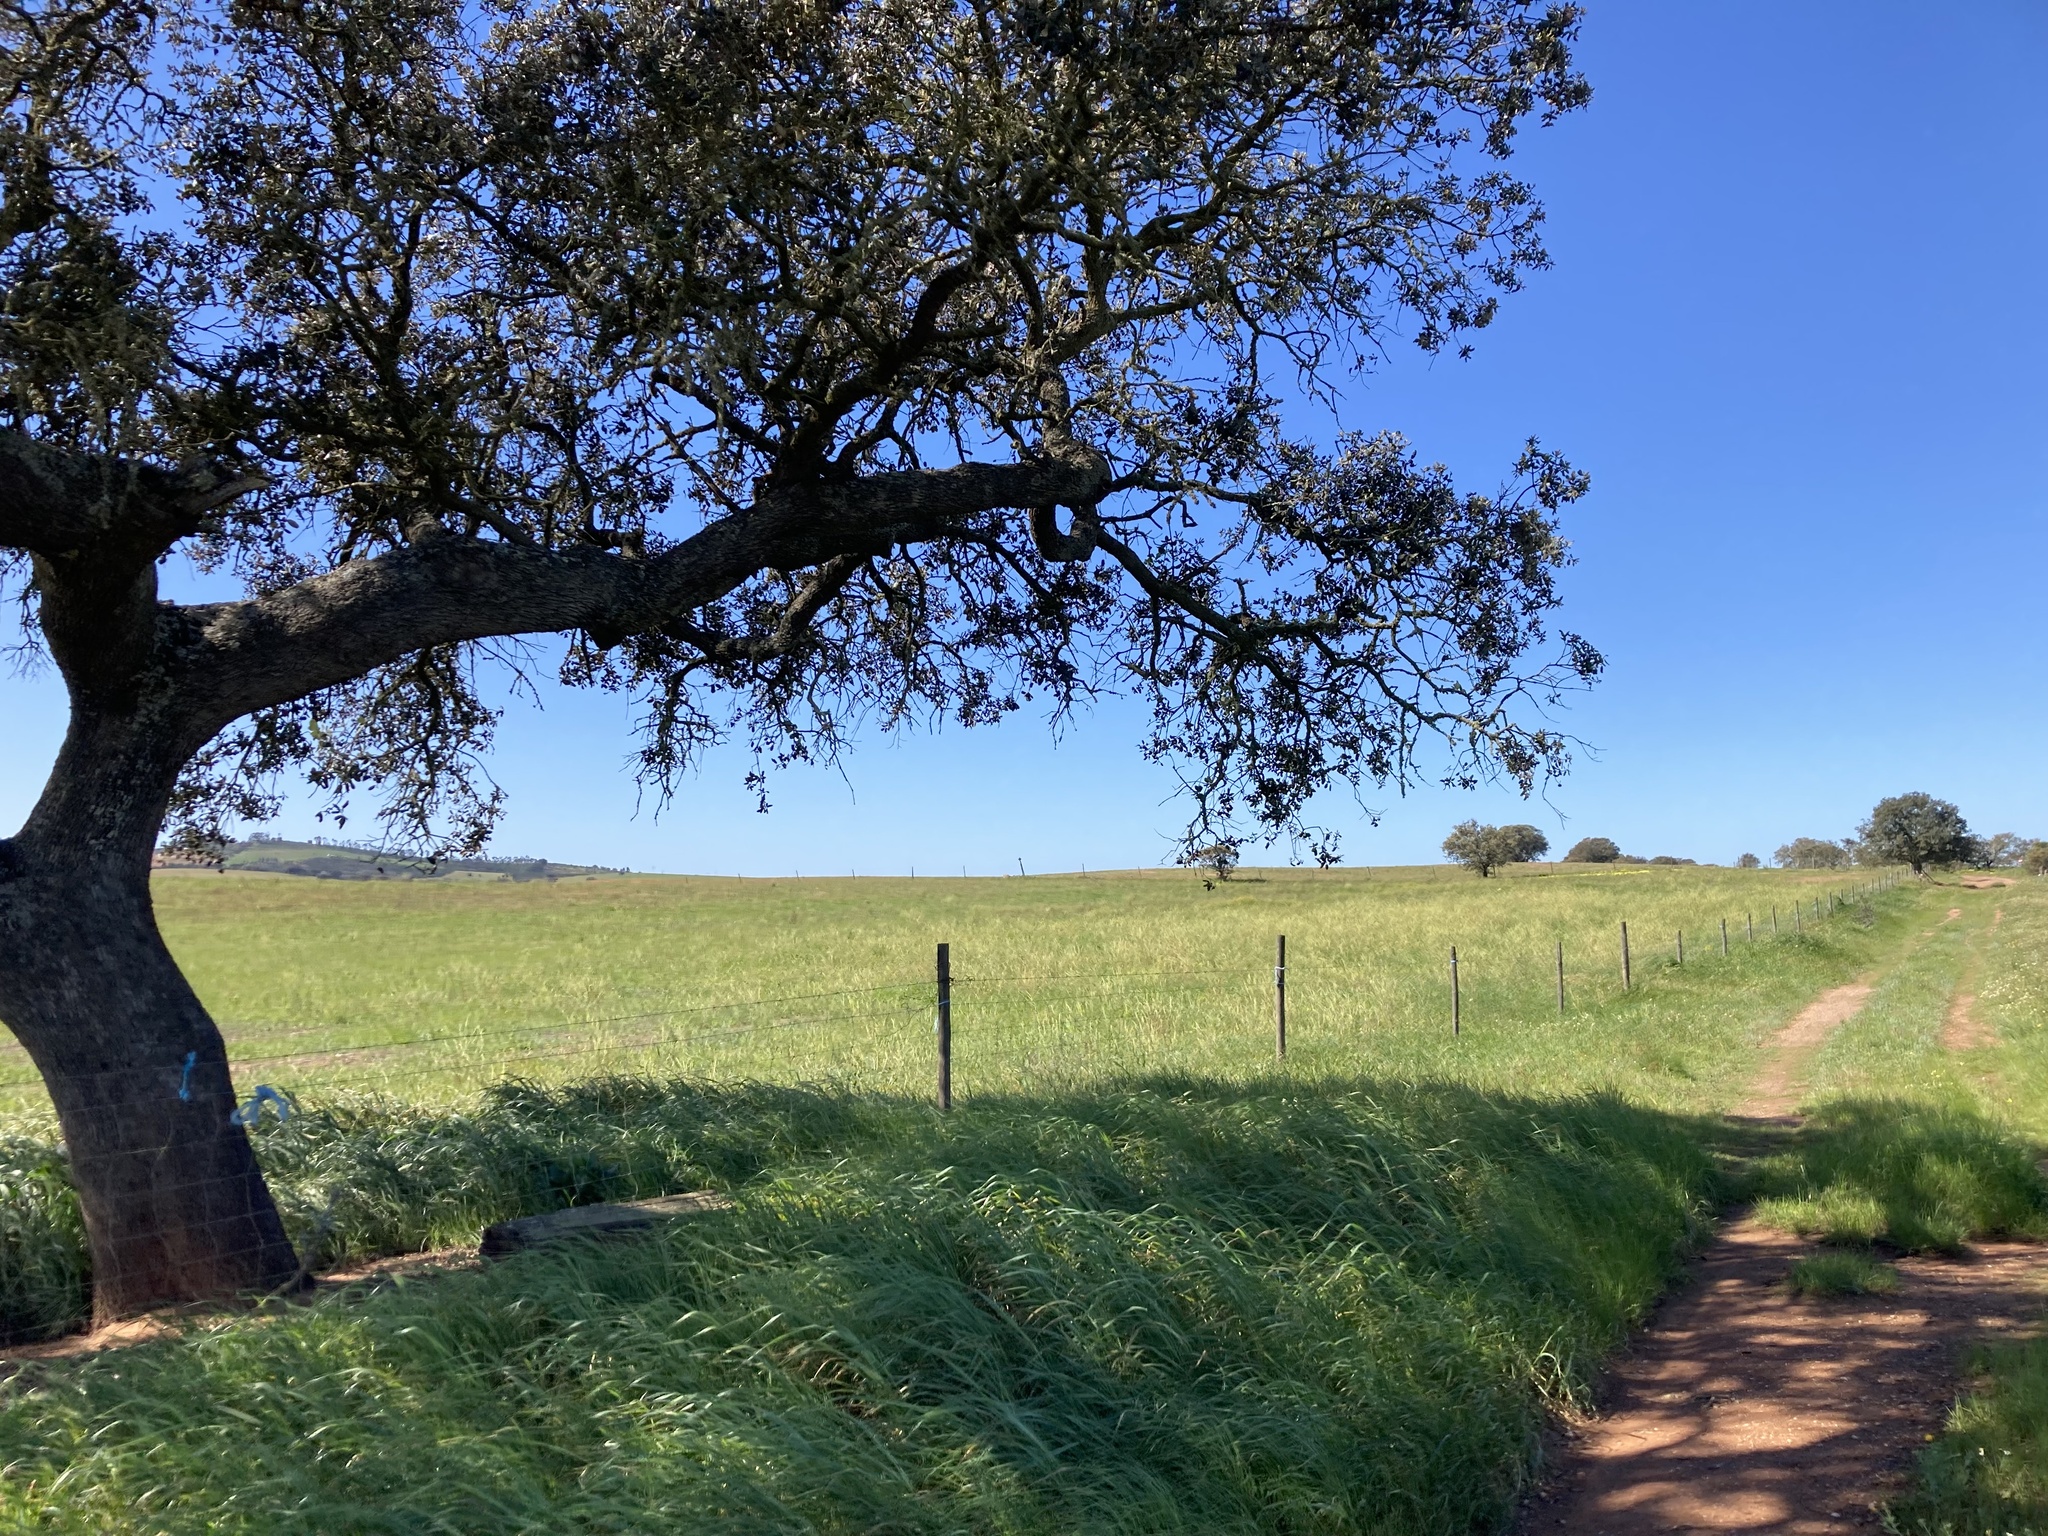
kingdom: Plantae
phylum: Tracheophyta
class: Magnoliopsida
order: Fagales
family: Fagaceae
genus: Quercus
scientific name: Quercus rotundifolia
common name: Holm oak
